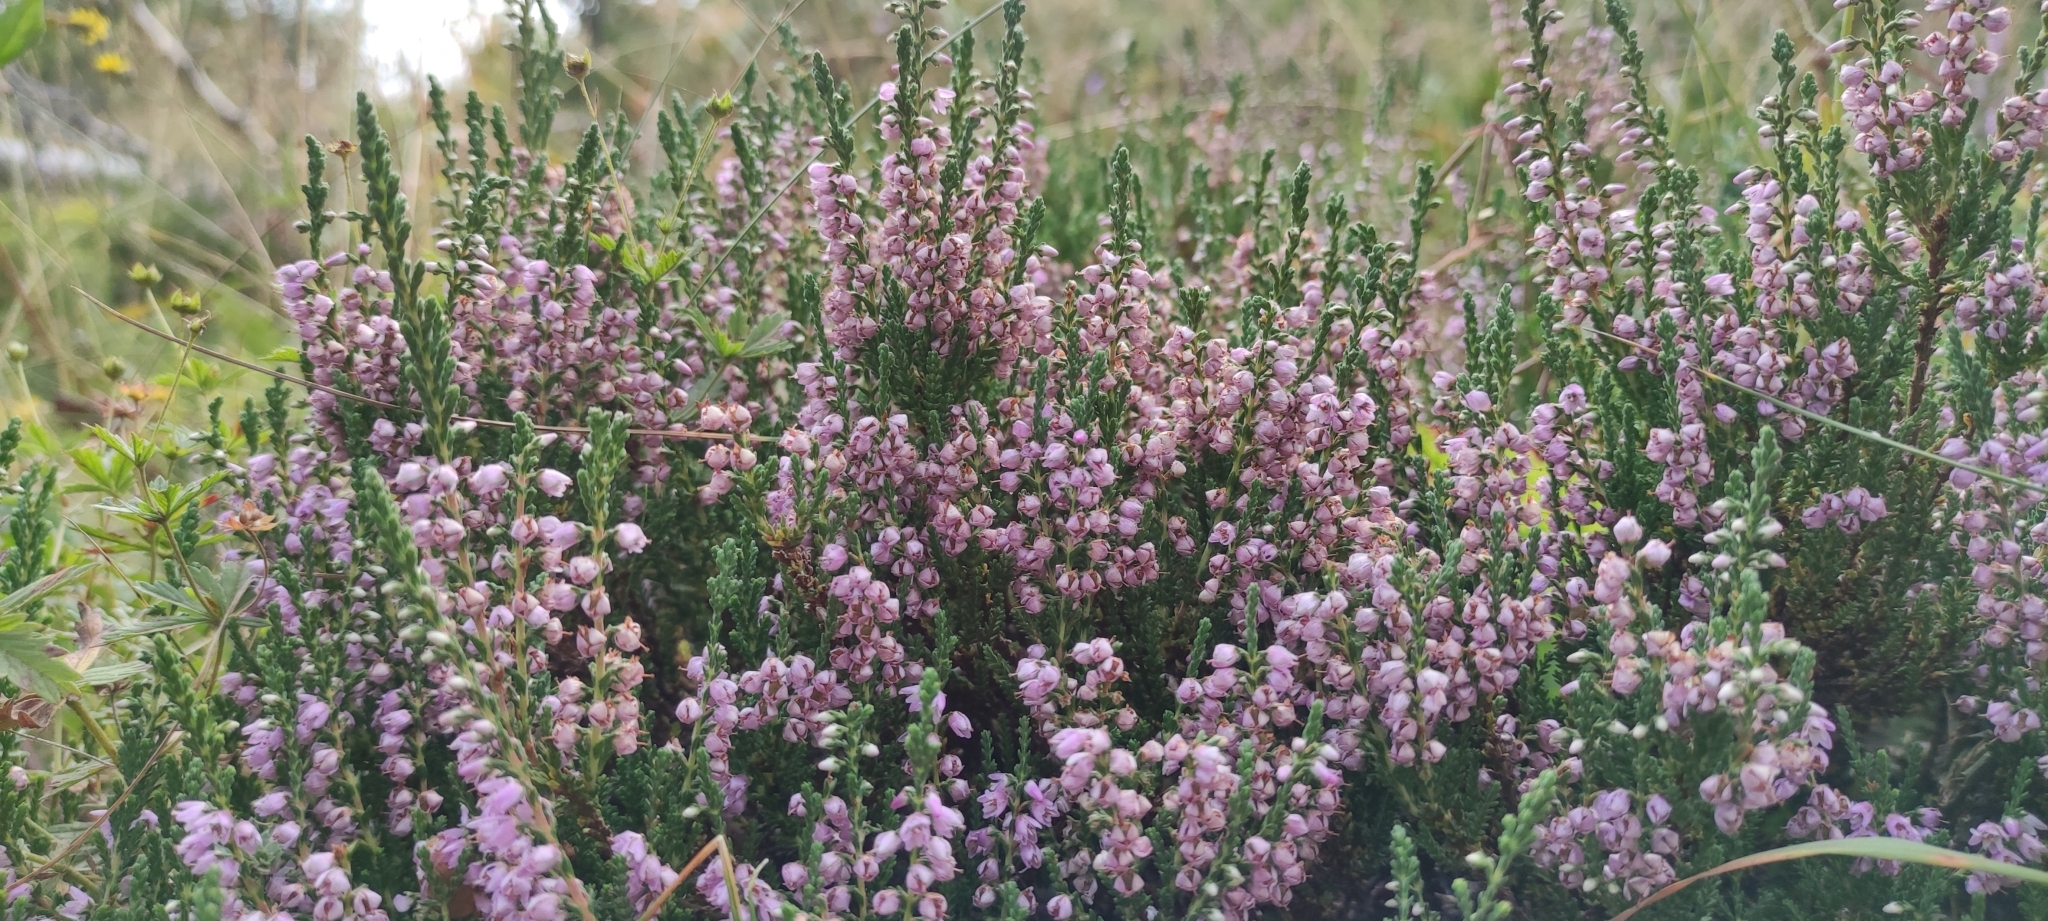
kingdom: Plantae
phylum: Tracheophyta
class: Magnoliopsida
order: Ericales
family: Ericaceae
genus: Calluna
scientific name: Calluna vulgaris
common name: Heather
